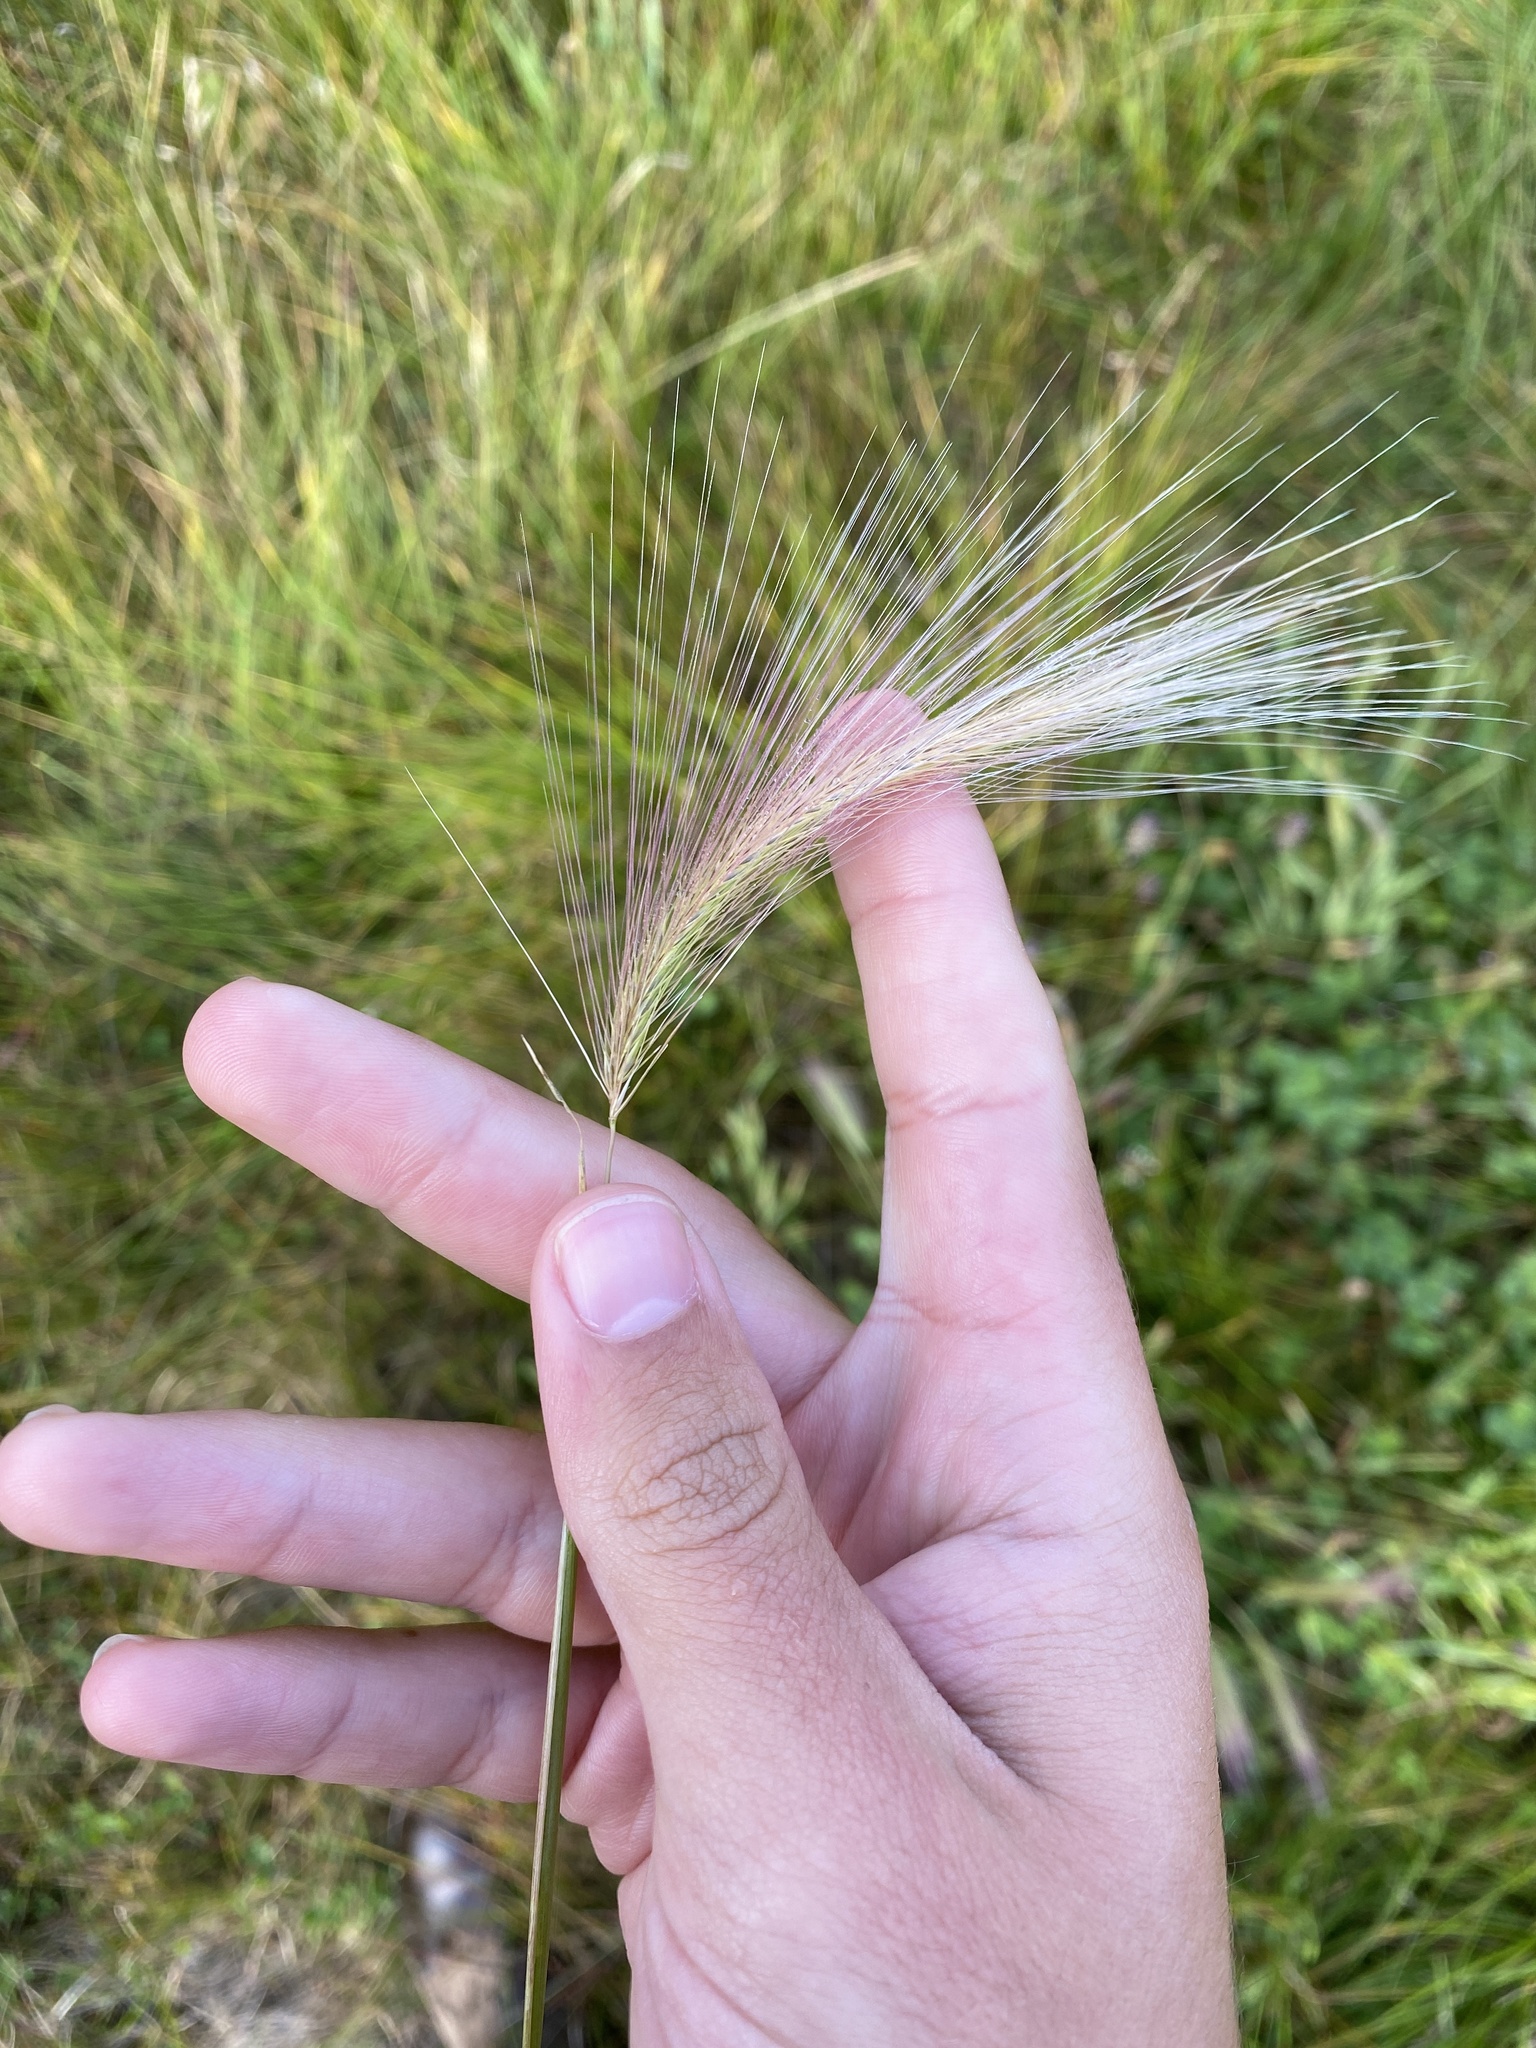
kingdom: Plantae
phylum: Tracheophyta
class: Liliopsida
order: Poales
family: Poaceae
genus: Hordeum
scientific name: Hordeum jubatum
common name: Foxtail barley
